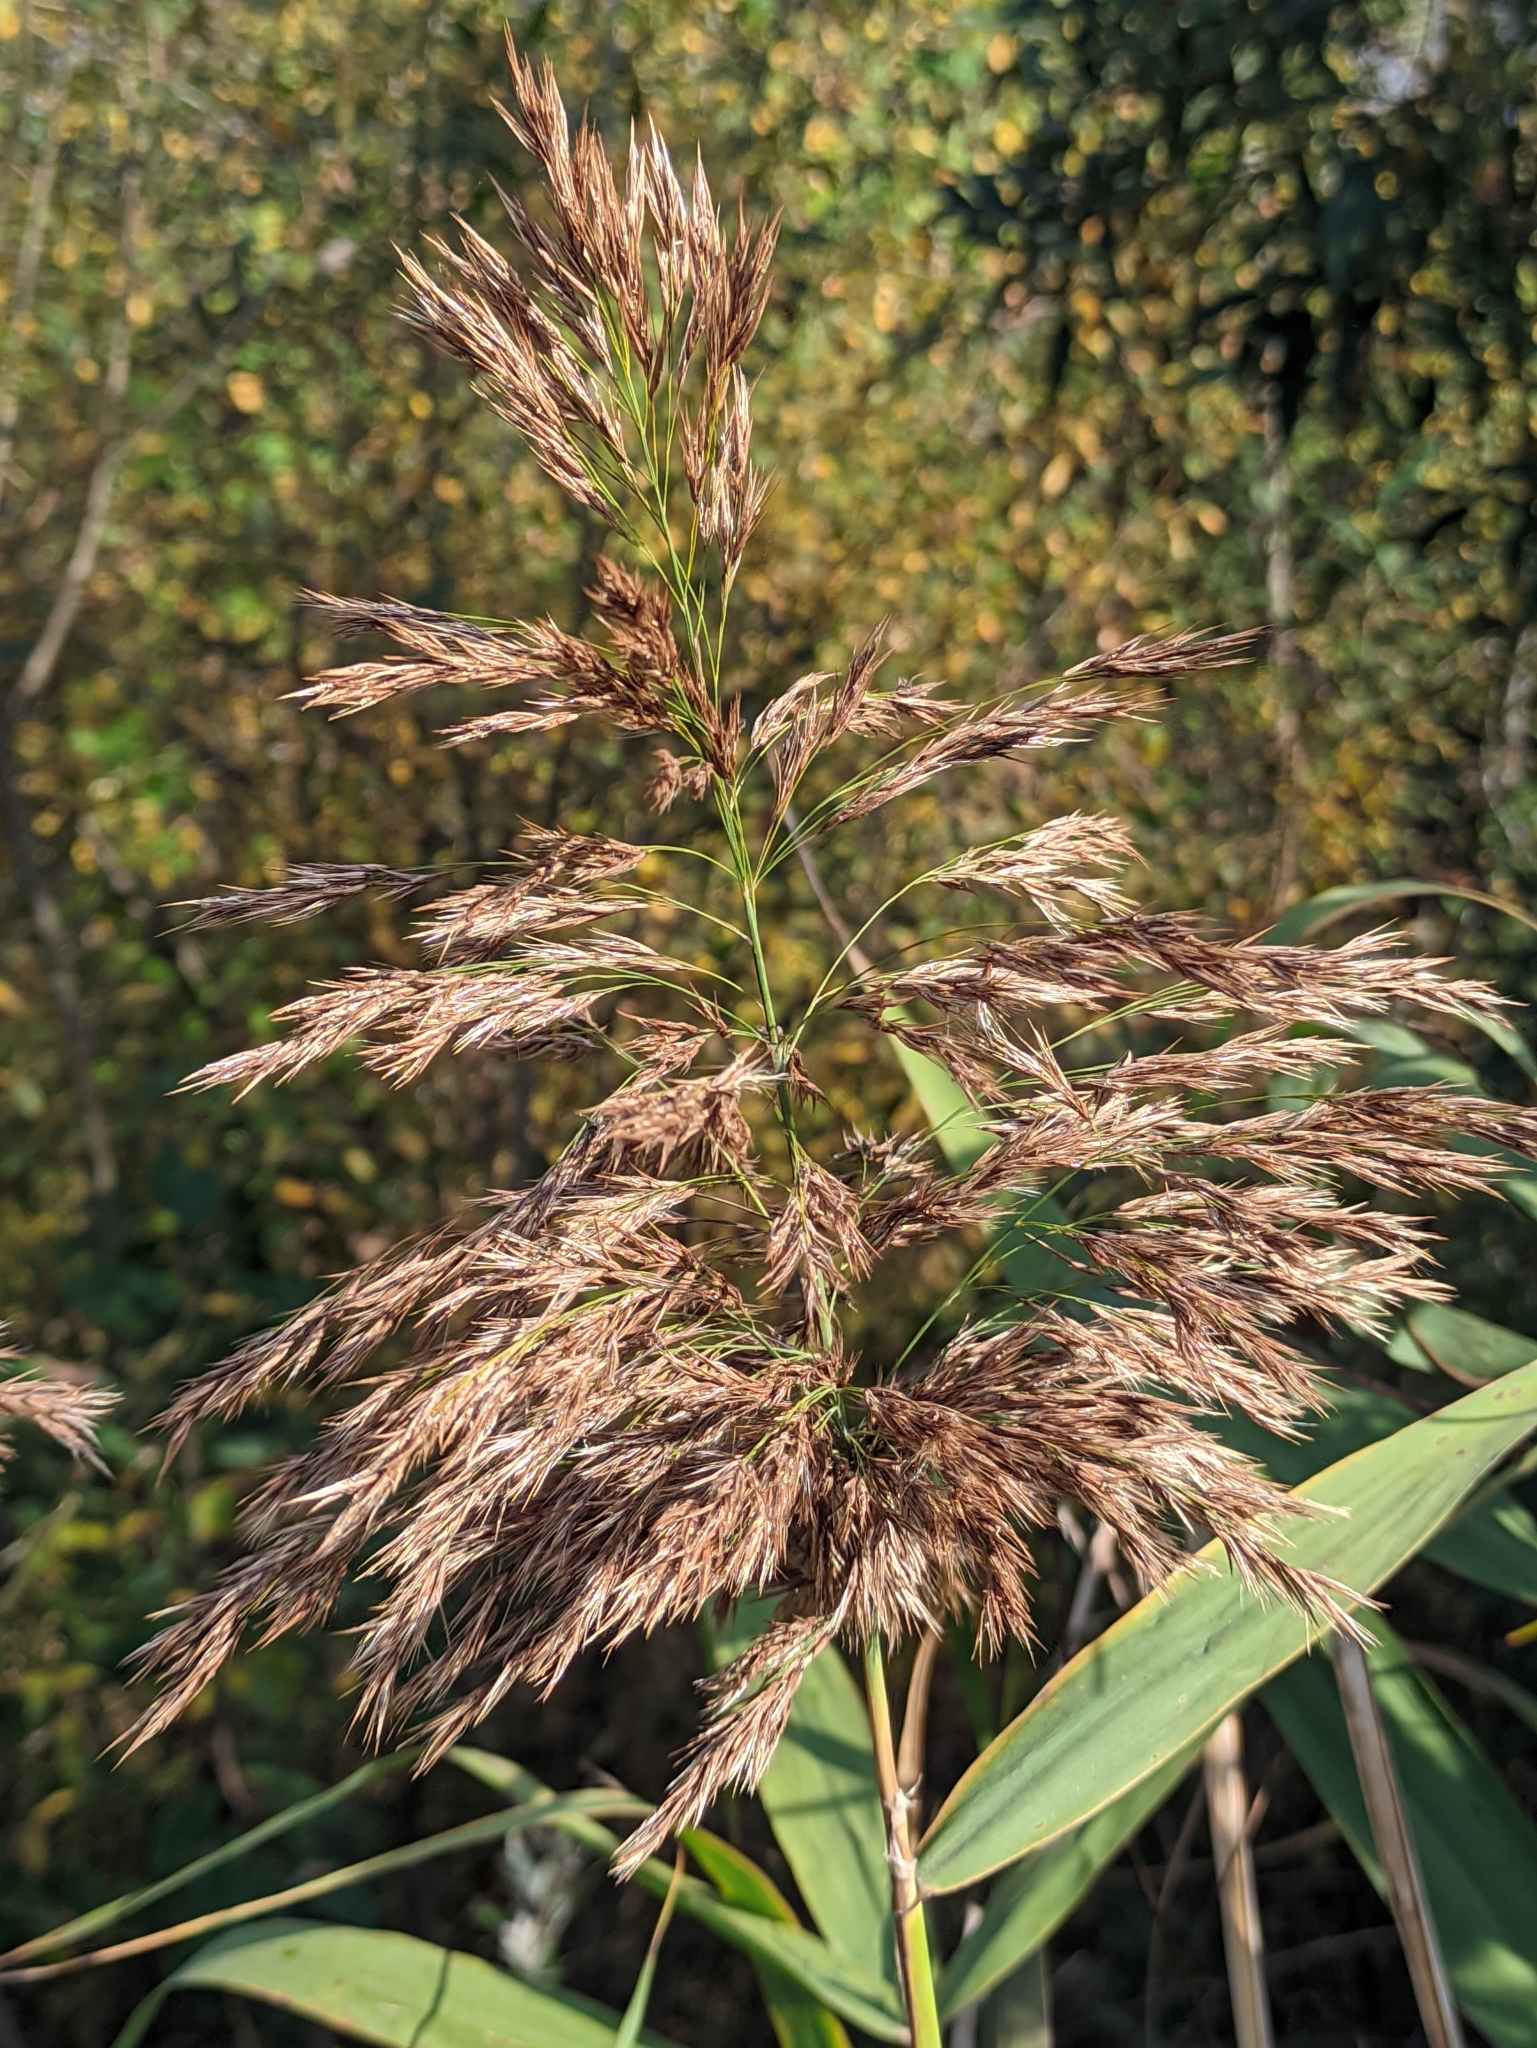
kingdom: Plantae
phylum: Tracheophyta
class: Liliopsida
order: Poales
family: Poaceae
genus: Phragmites
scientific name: Phragmites australis
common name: Common reed
